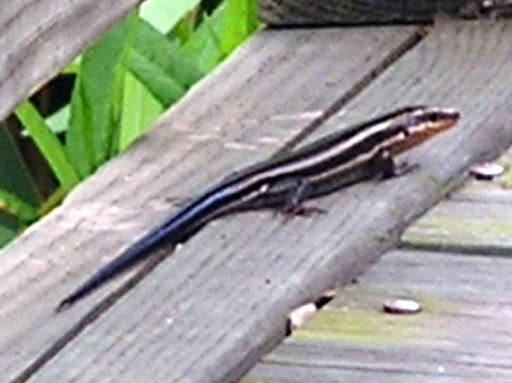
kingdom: Animalia
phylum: Chordata
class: Squamata
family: Scincidae
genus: Plestiodon
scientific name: Plestiodon fasciatus
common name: Five-lined skink
